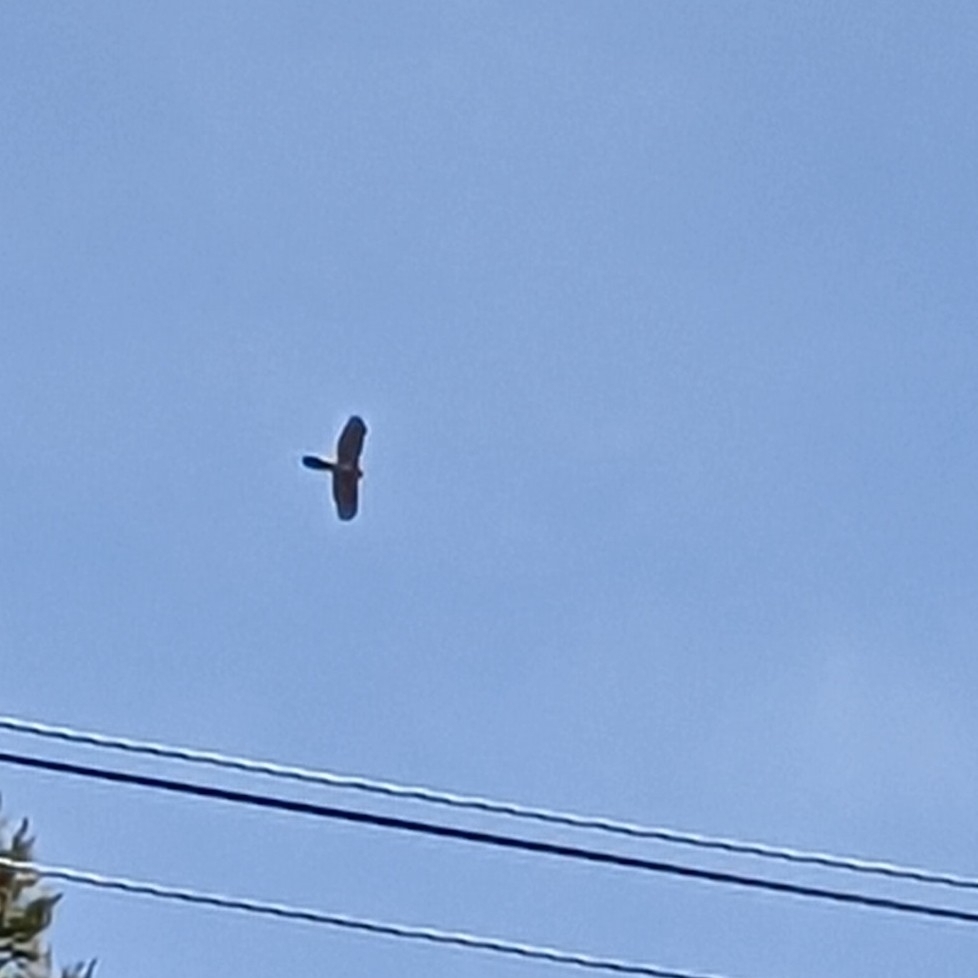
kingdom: Animalia
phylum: Chordata
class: Aves
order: Accipitriformes
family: Accipitridae
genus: Accipiter
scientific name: Accipiter cooperii
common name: Cooper's hawk
